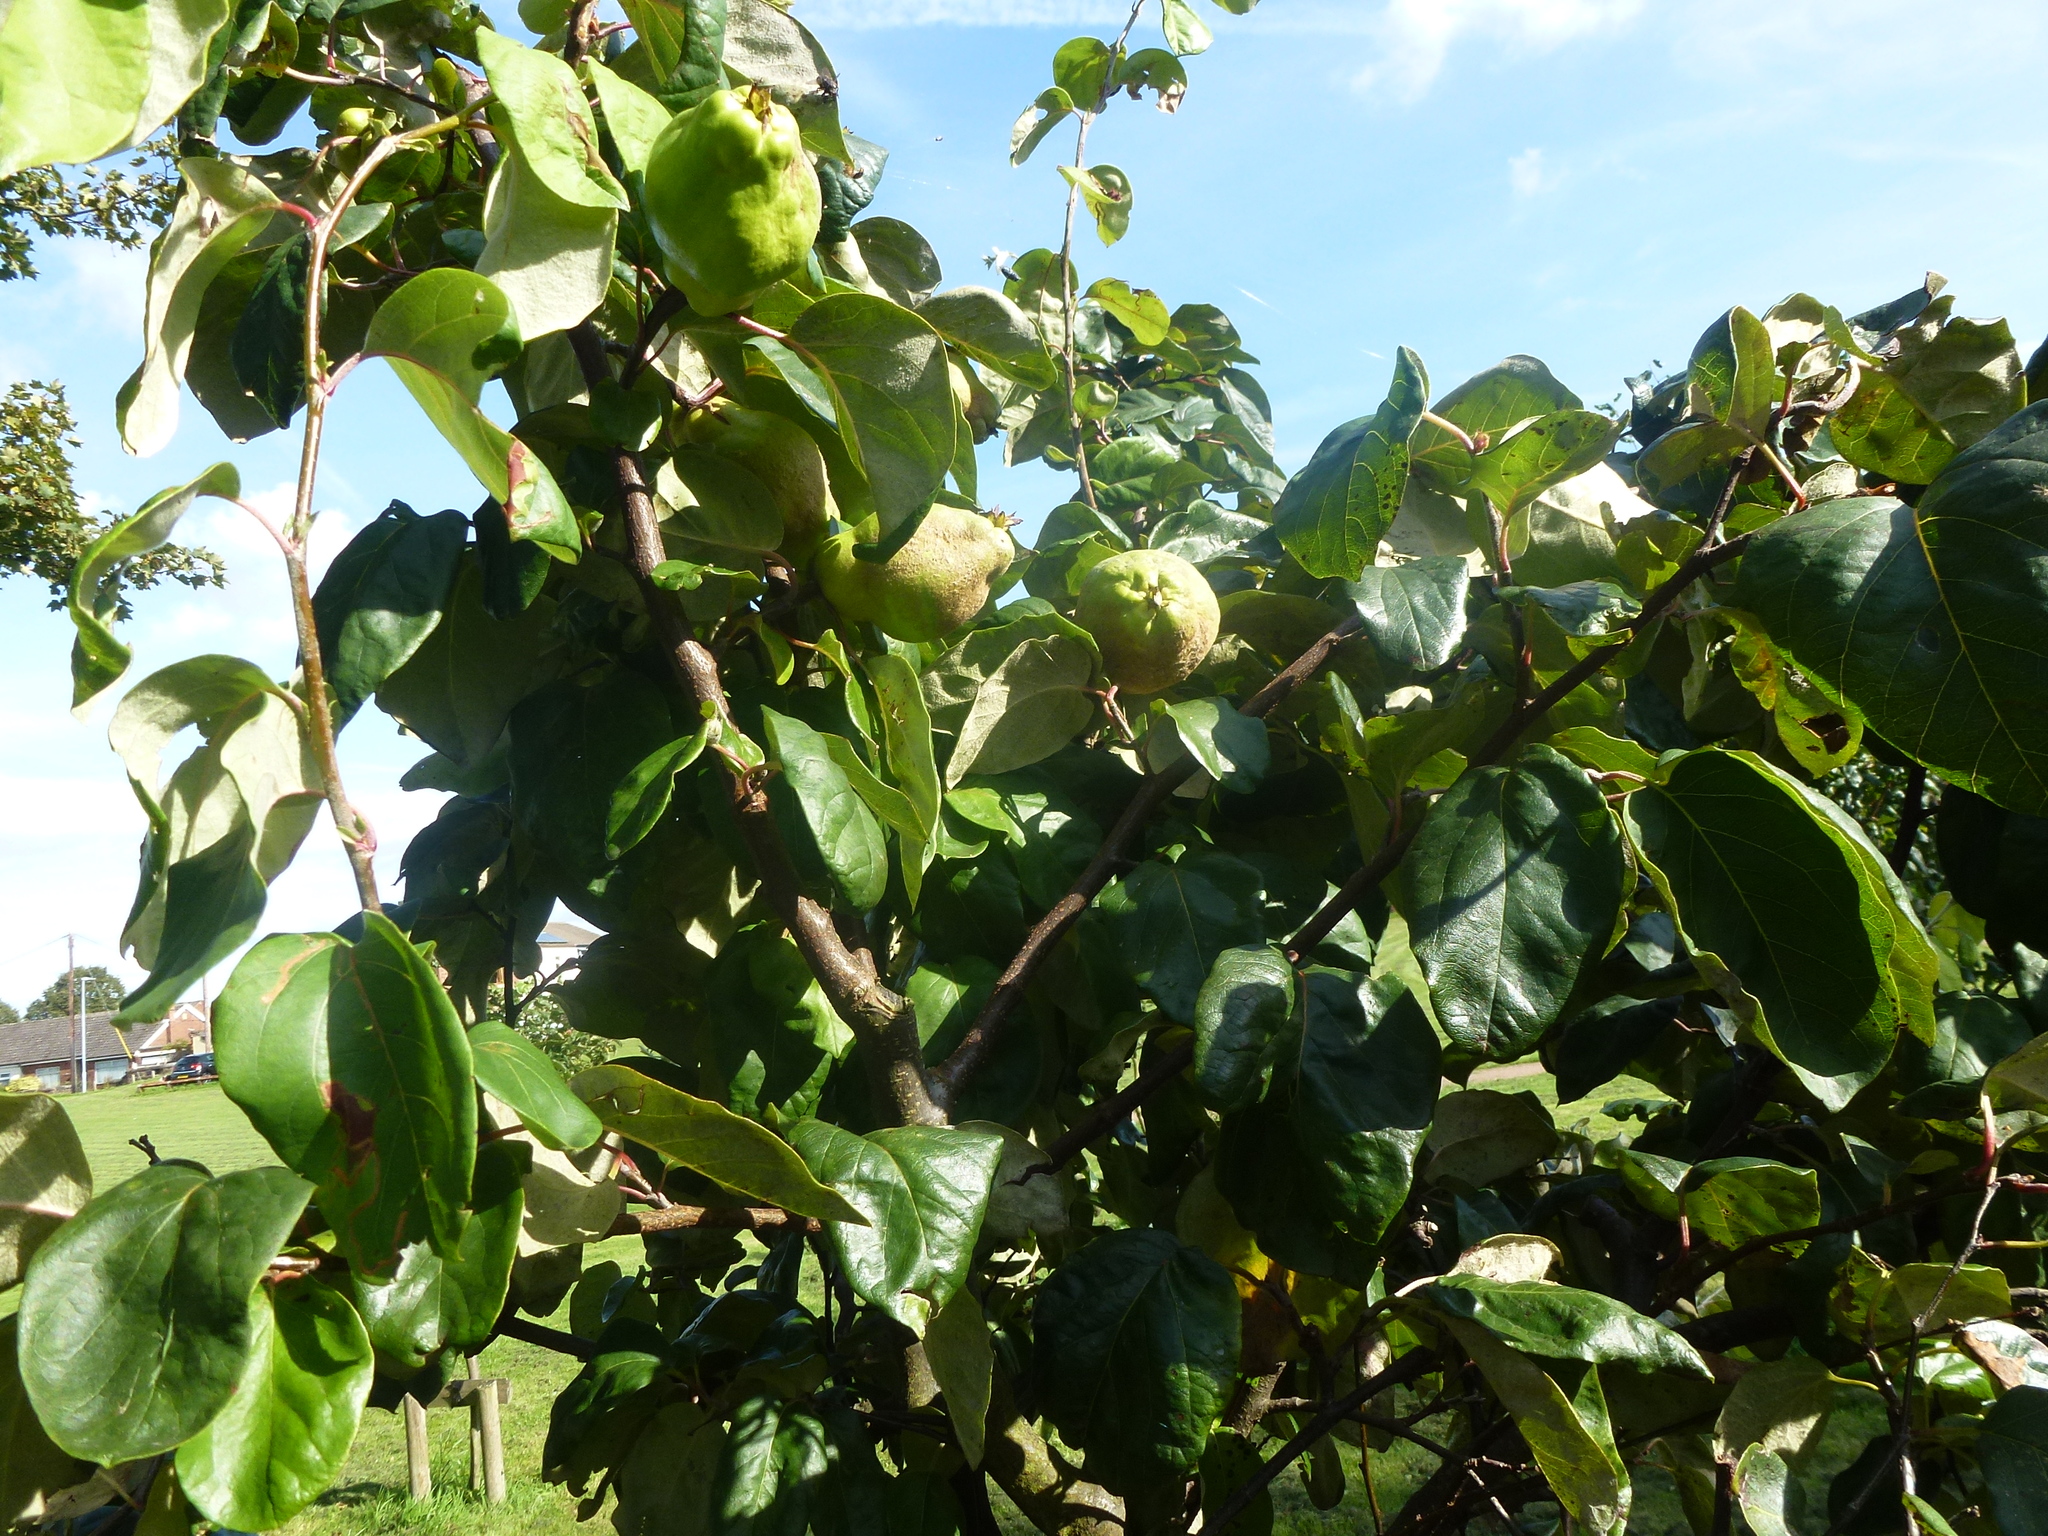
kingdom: Plantae
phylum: Tracheophyta
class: Magnoliopsida
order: Rosales
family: Rosaceae
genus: Cydonia
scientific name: Cydonia oblonga
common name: Quince
